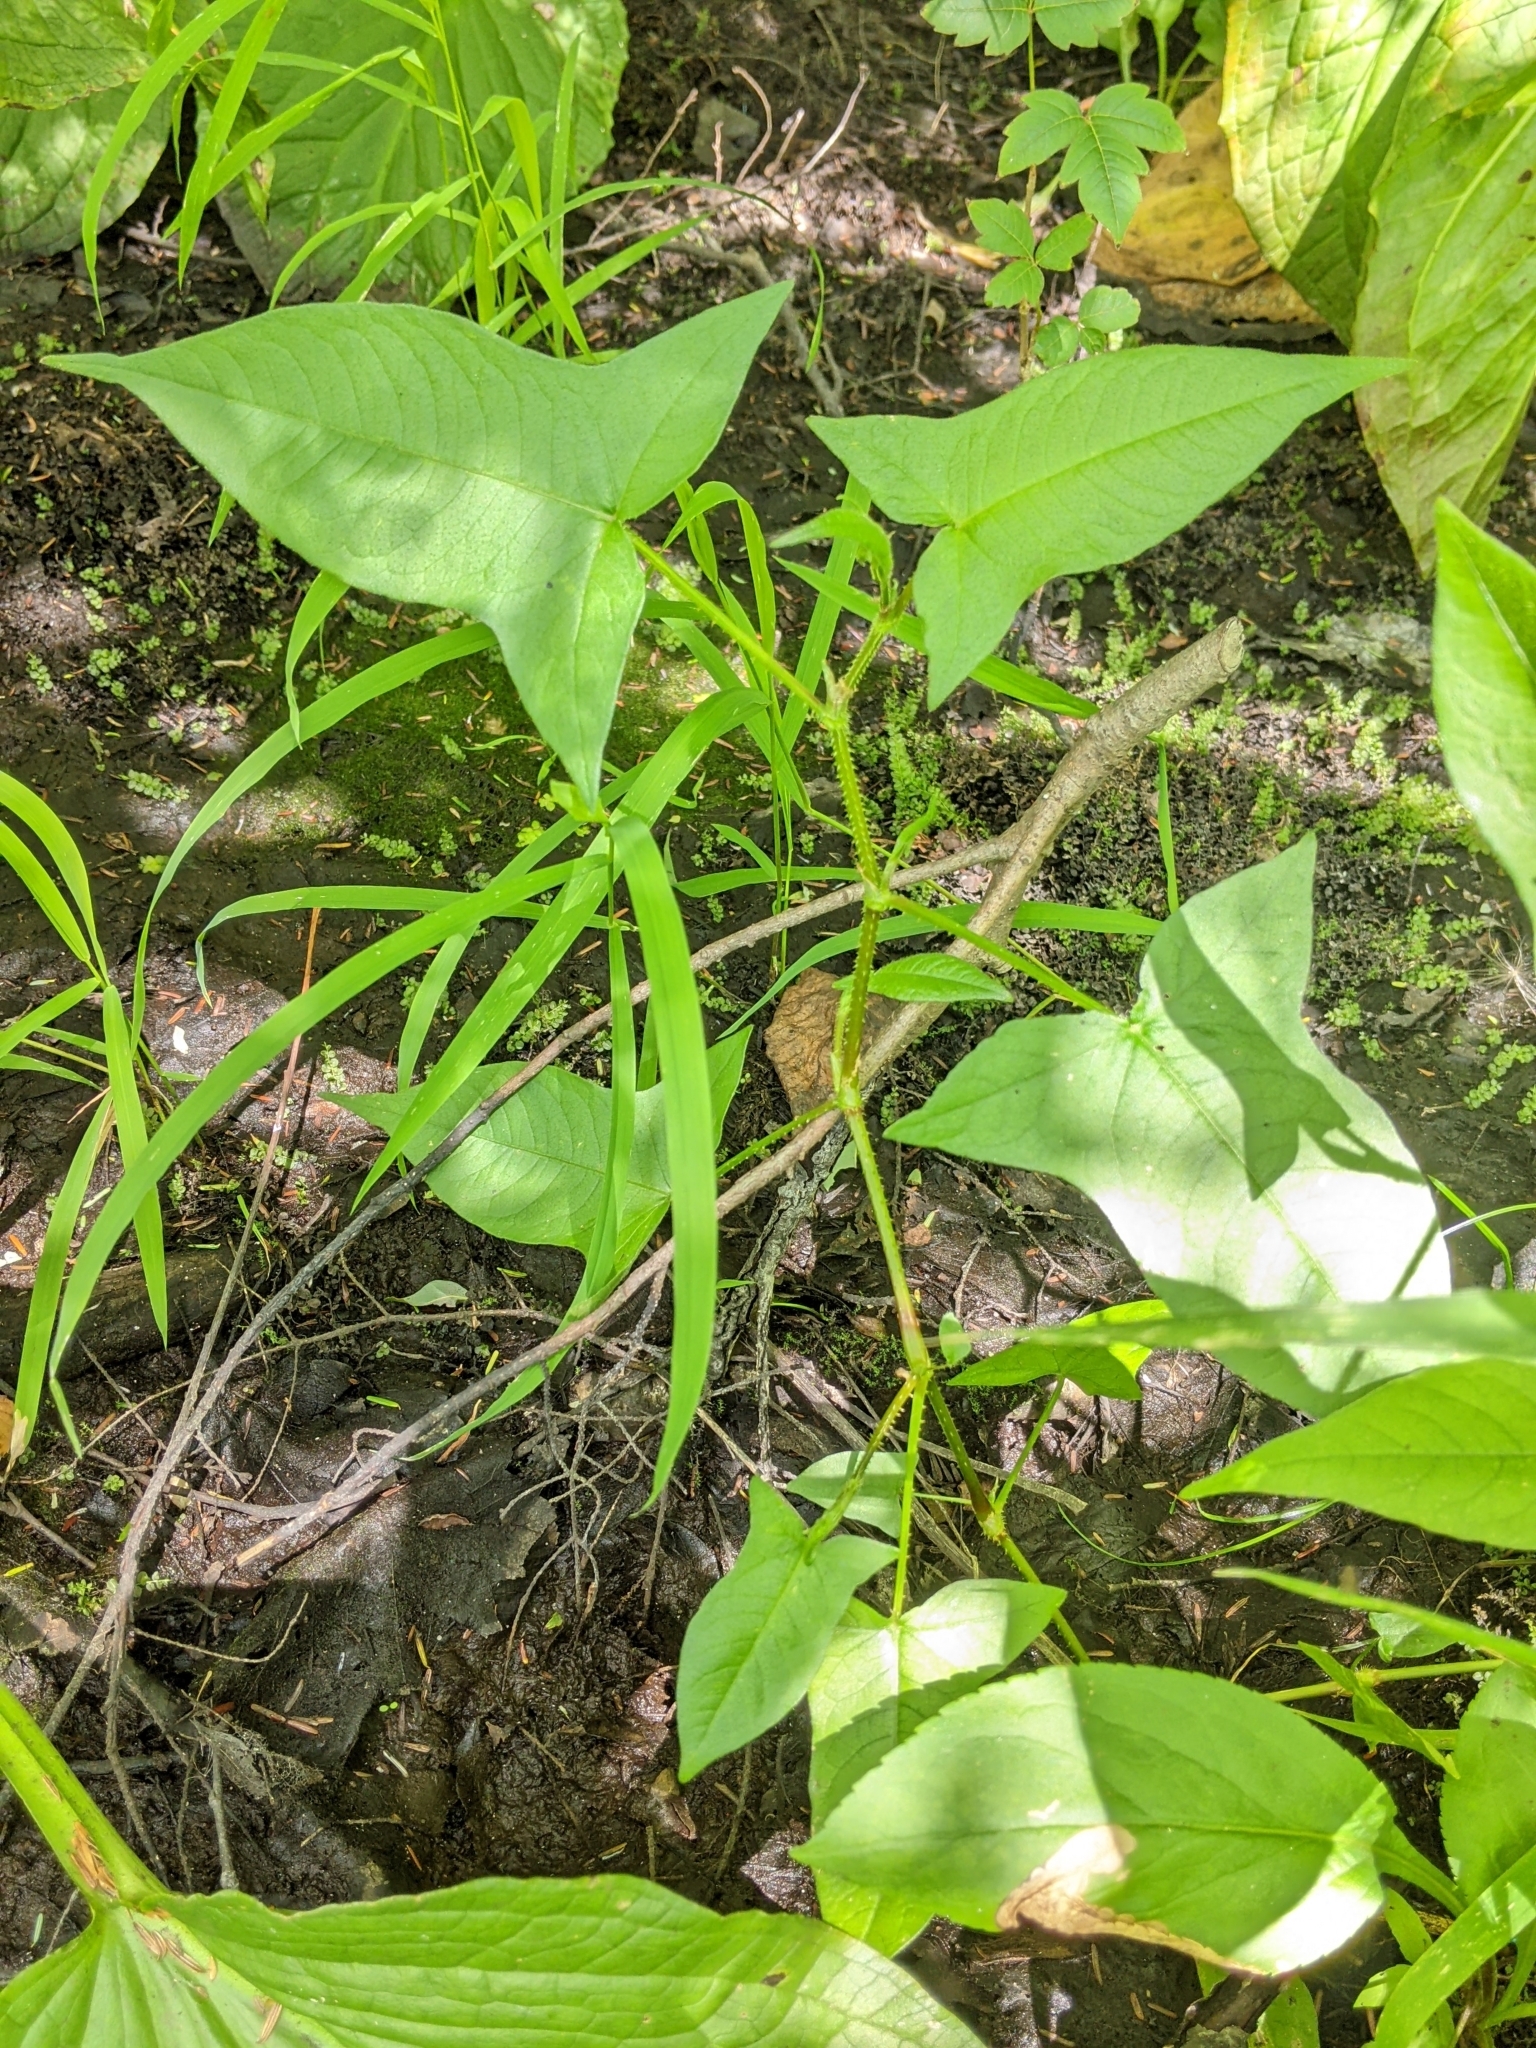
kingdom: Plantae
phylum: Tracheophyta
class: Magnoliopsida
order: Caryophyllales
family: Polygonaceae
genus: Persicaria
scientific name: Persicaria arifolia
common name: Halberd-leaved tear-thumb
